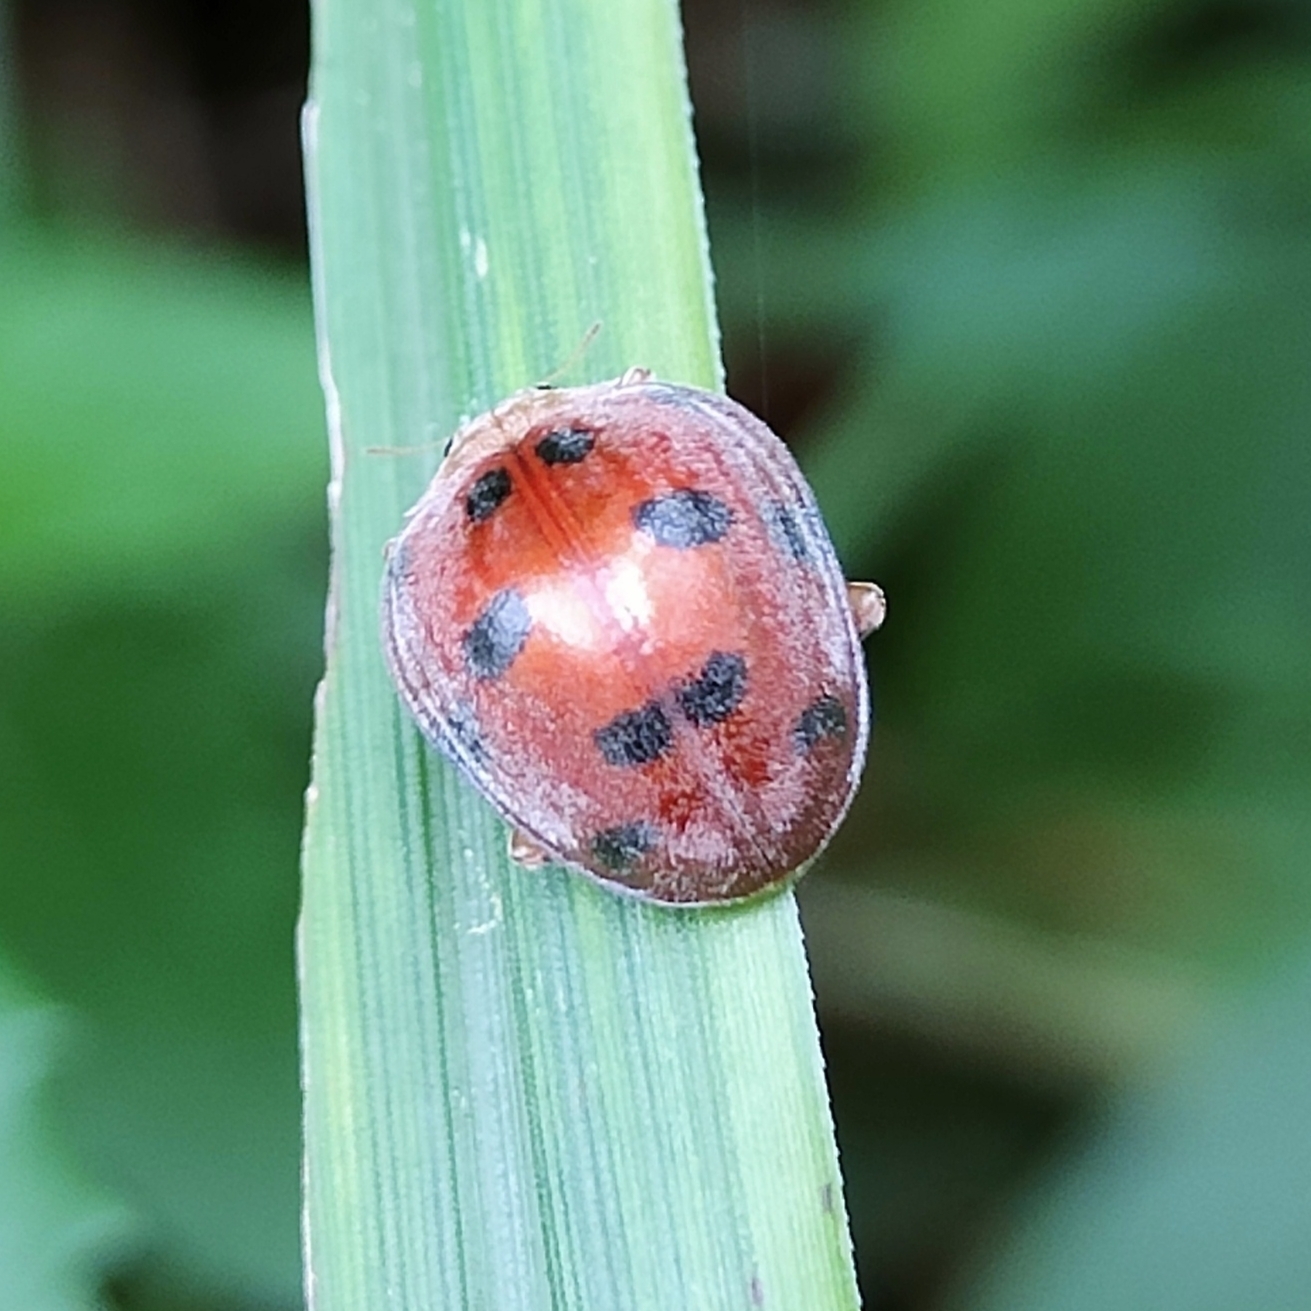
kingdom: Animalia
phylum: Arthropoda
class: Insecta
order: Coleoptera
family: Coccinellidae
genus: Henosepilachna
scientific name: Henosepilachna enneasticta
